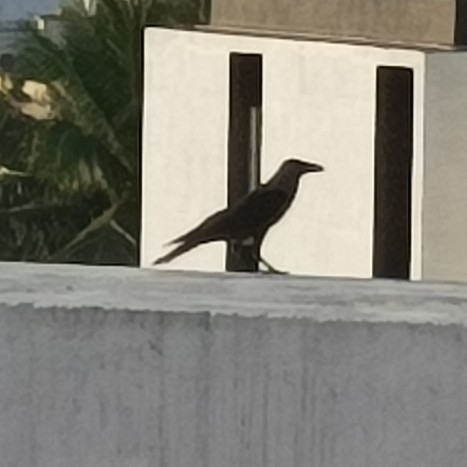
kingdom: Animalia
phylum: Chordata
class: Aves
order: Passeriformes
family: Corvidae
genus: Corvus
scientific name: Corvus splendens
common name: House crow
